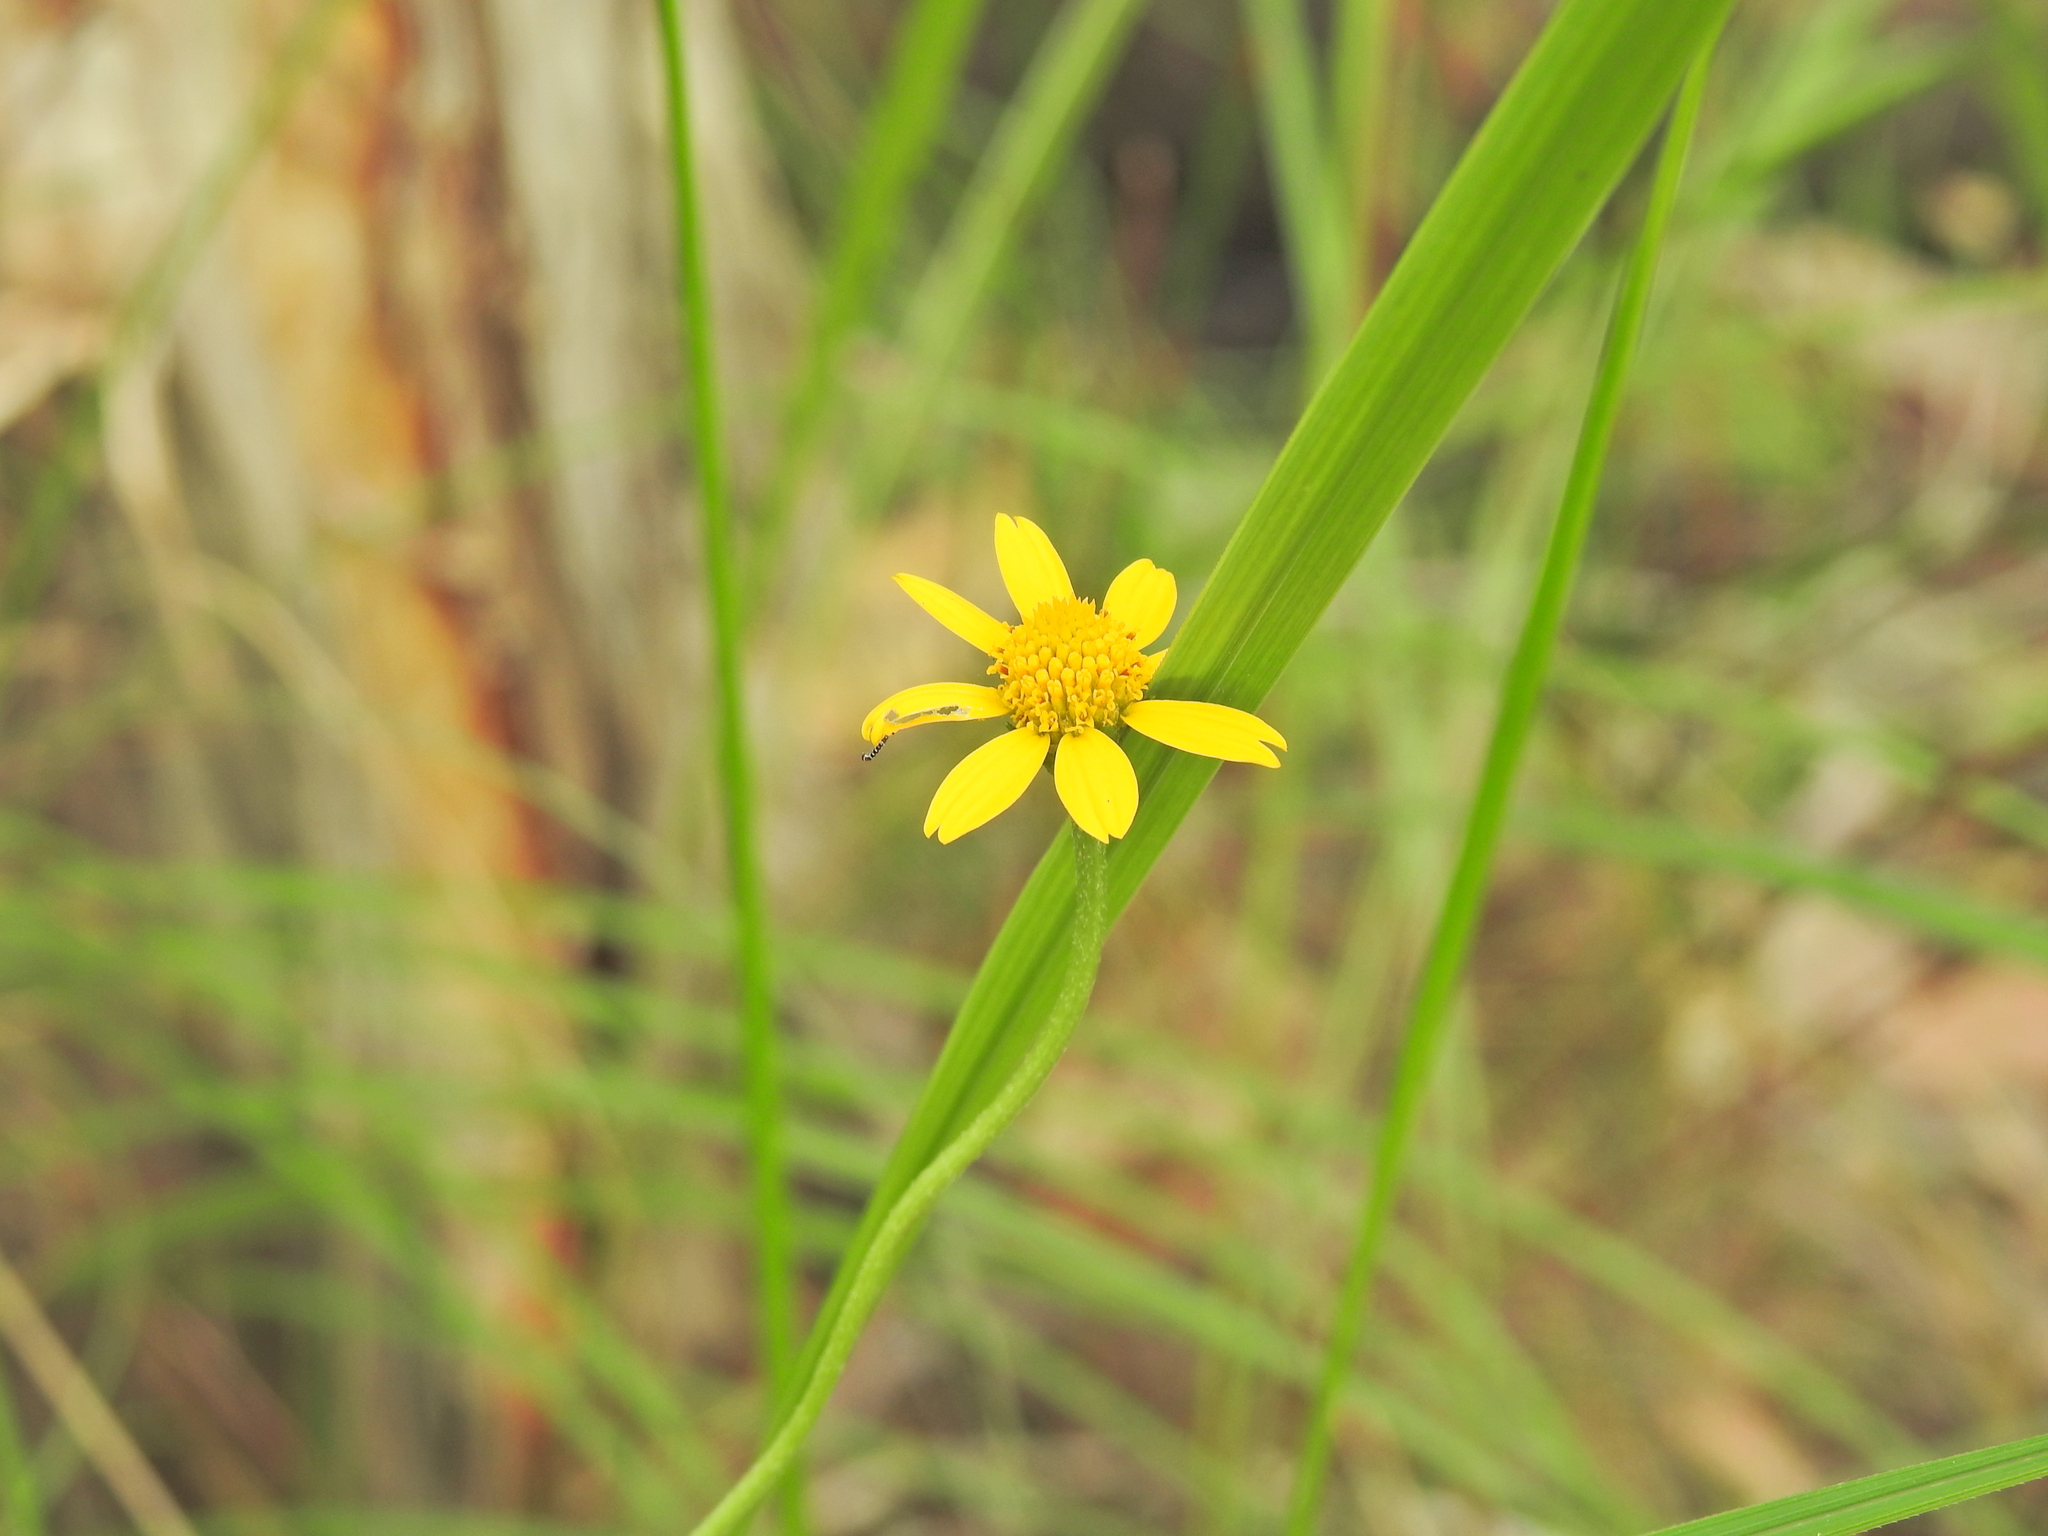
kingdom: Plantae
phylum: Tracheophyta
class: Magnoliopsida
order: Asterales
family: Asteraceae
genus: Acmella
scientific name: Acmella grandiflora
